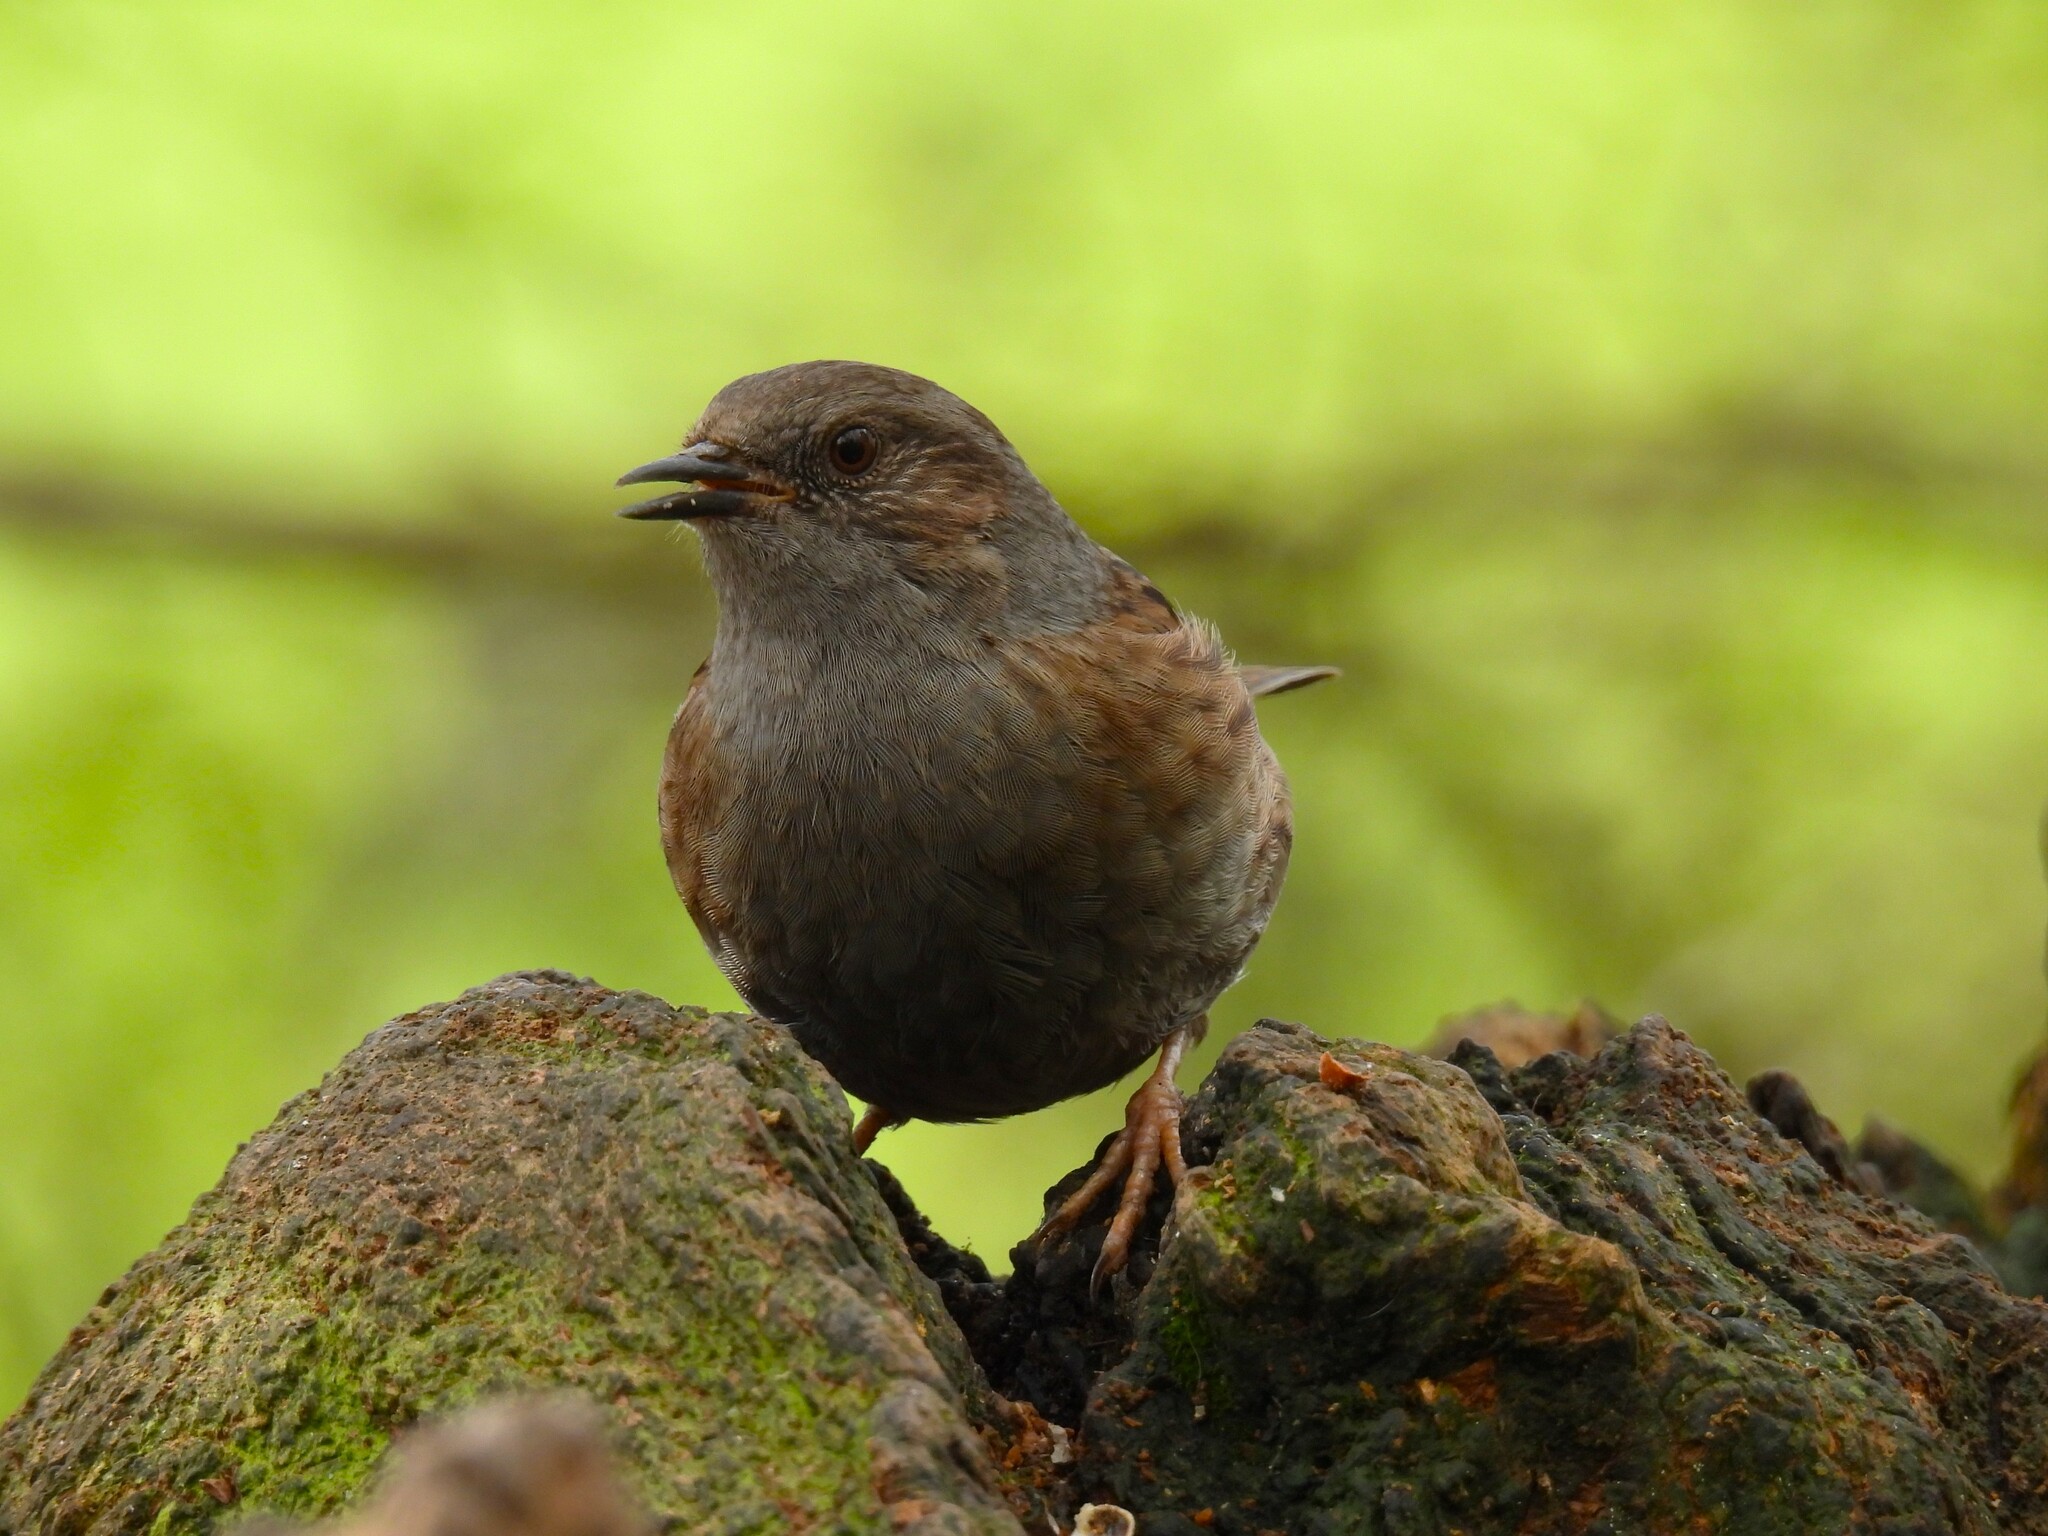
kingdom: Animalia
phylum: Chordata
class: Aves
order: Passeriformes
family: Prunellidae
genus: Prunella
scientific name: Prunella modularis
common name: Dunnock
